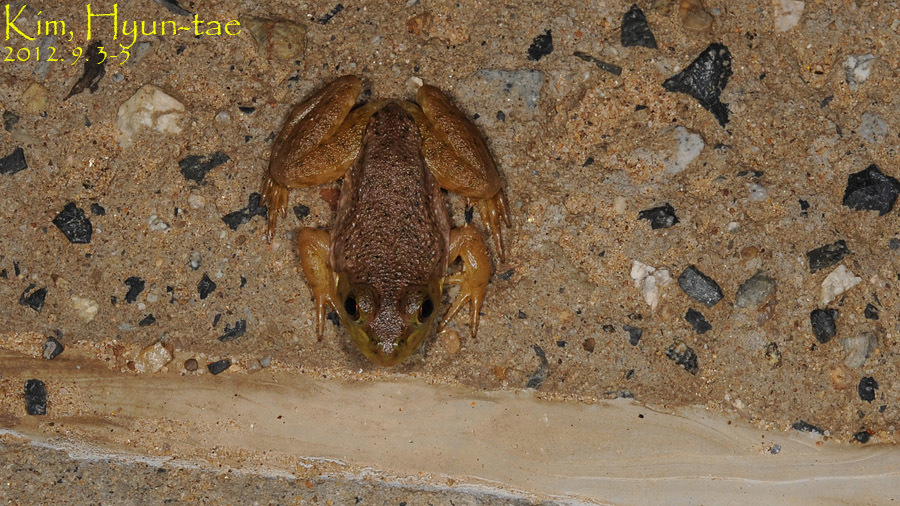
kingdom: Animalia
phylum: Chordata
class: Amphibia
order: Anura
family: Ranidae
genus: Lithobates
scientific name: Lithobates catesbeianus
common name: American bullfrog
